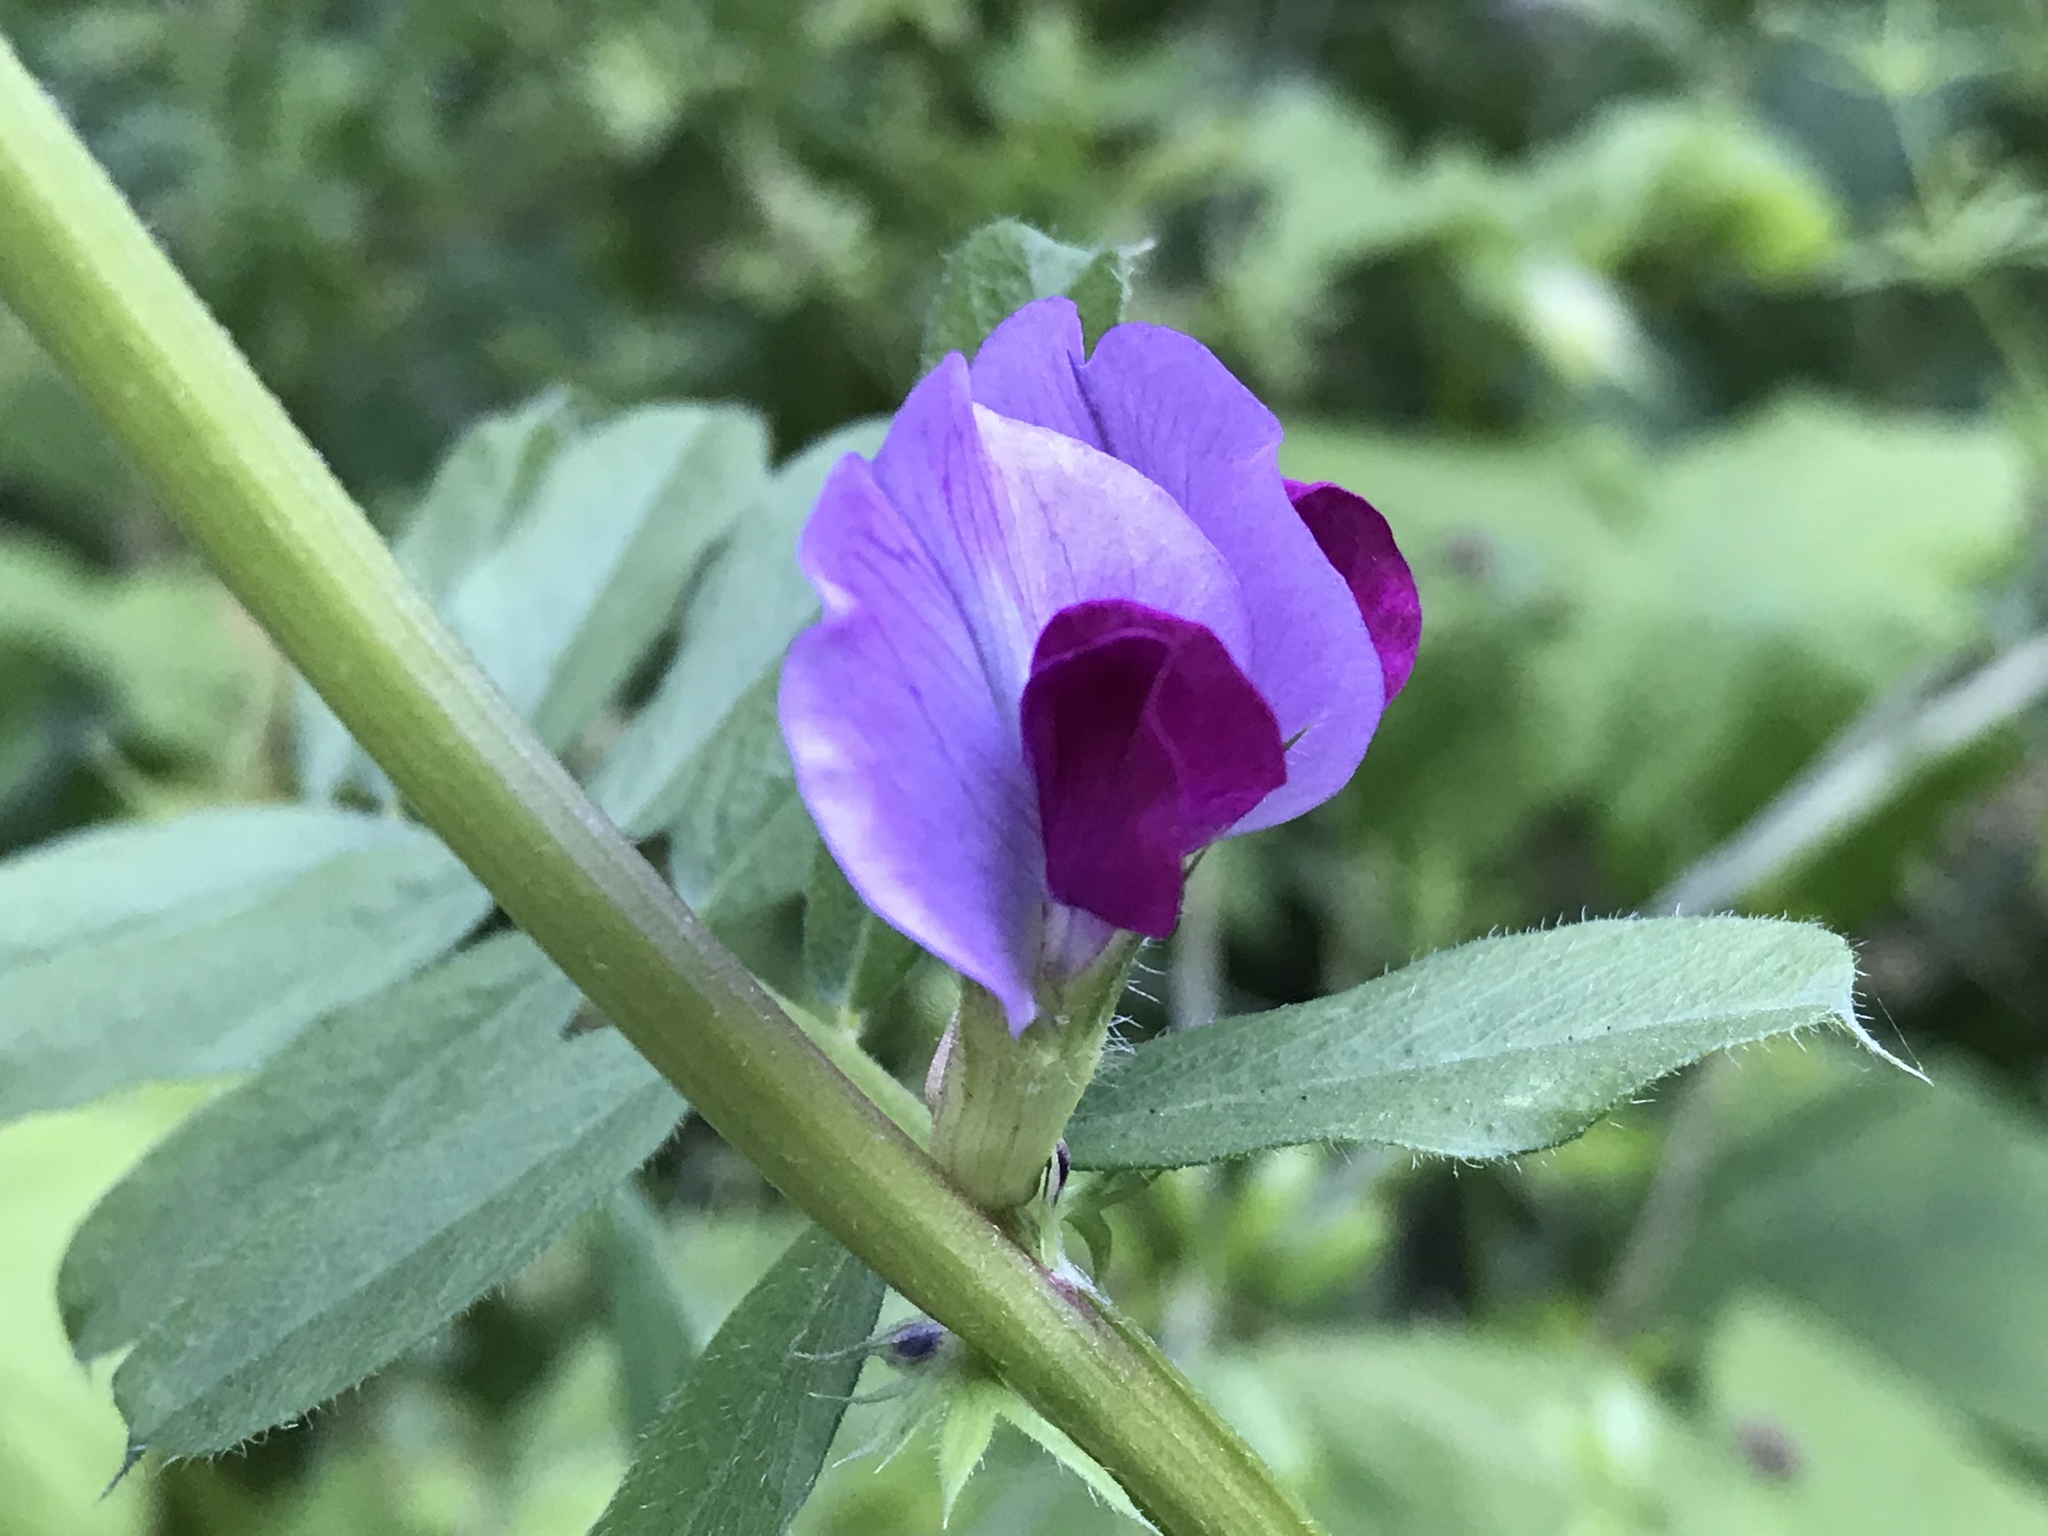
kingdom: Plantae
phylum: Tracheophyta
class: Magnoliopsida
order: Fabales
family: Fabaceae
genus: Vicia
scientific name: Vicia sativa
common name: Garden vetch
